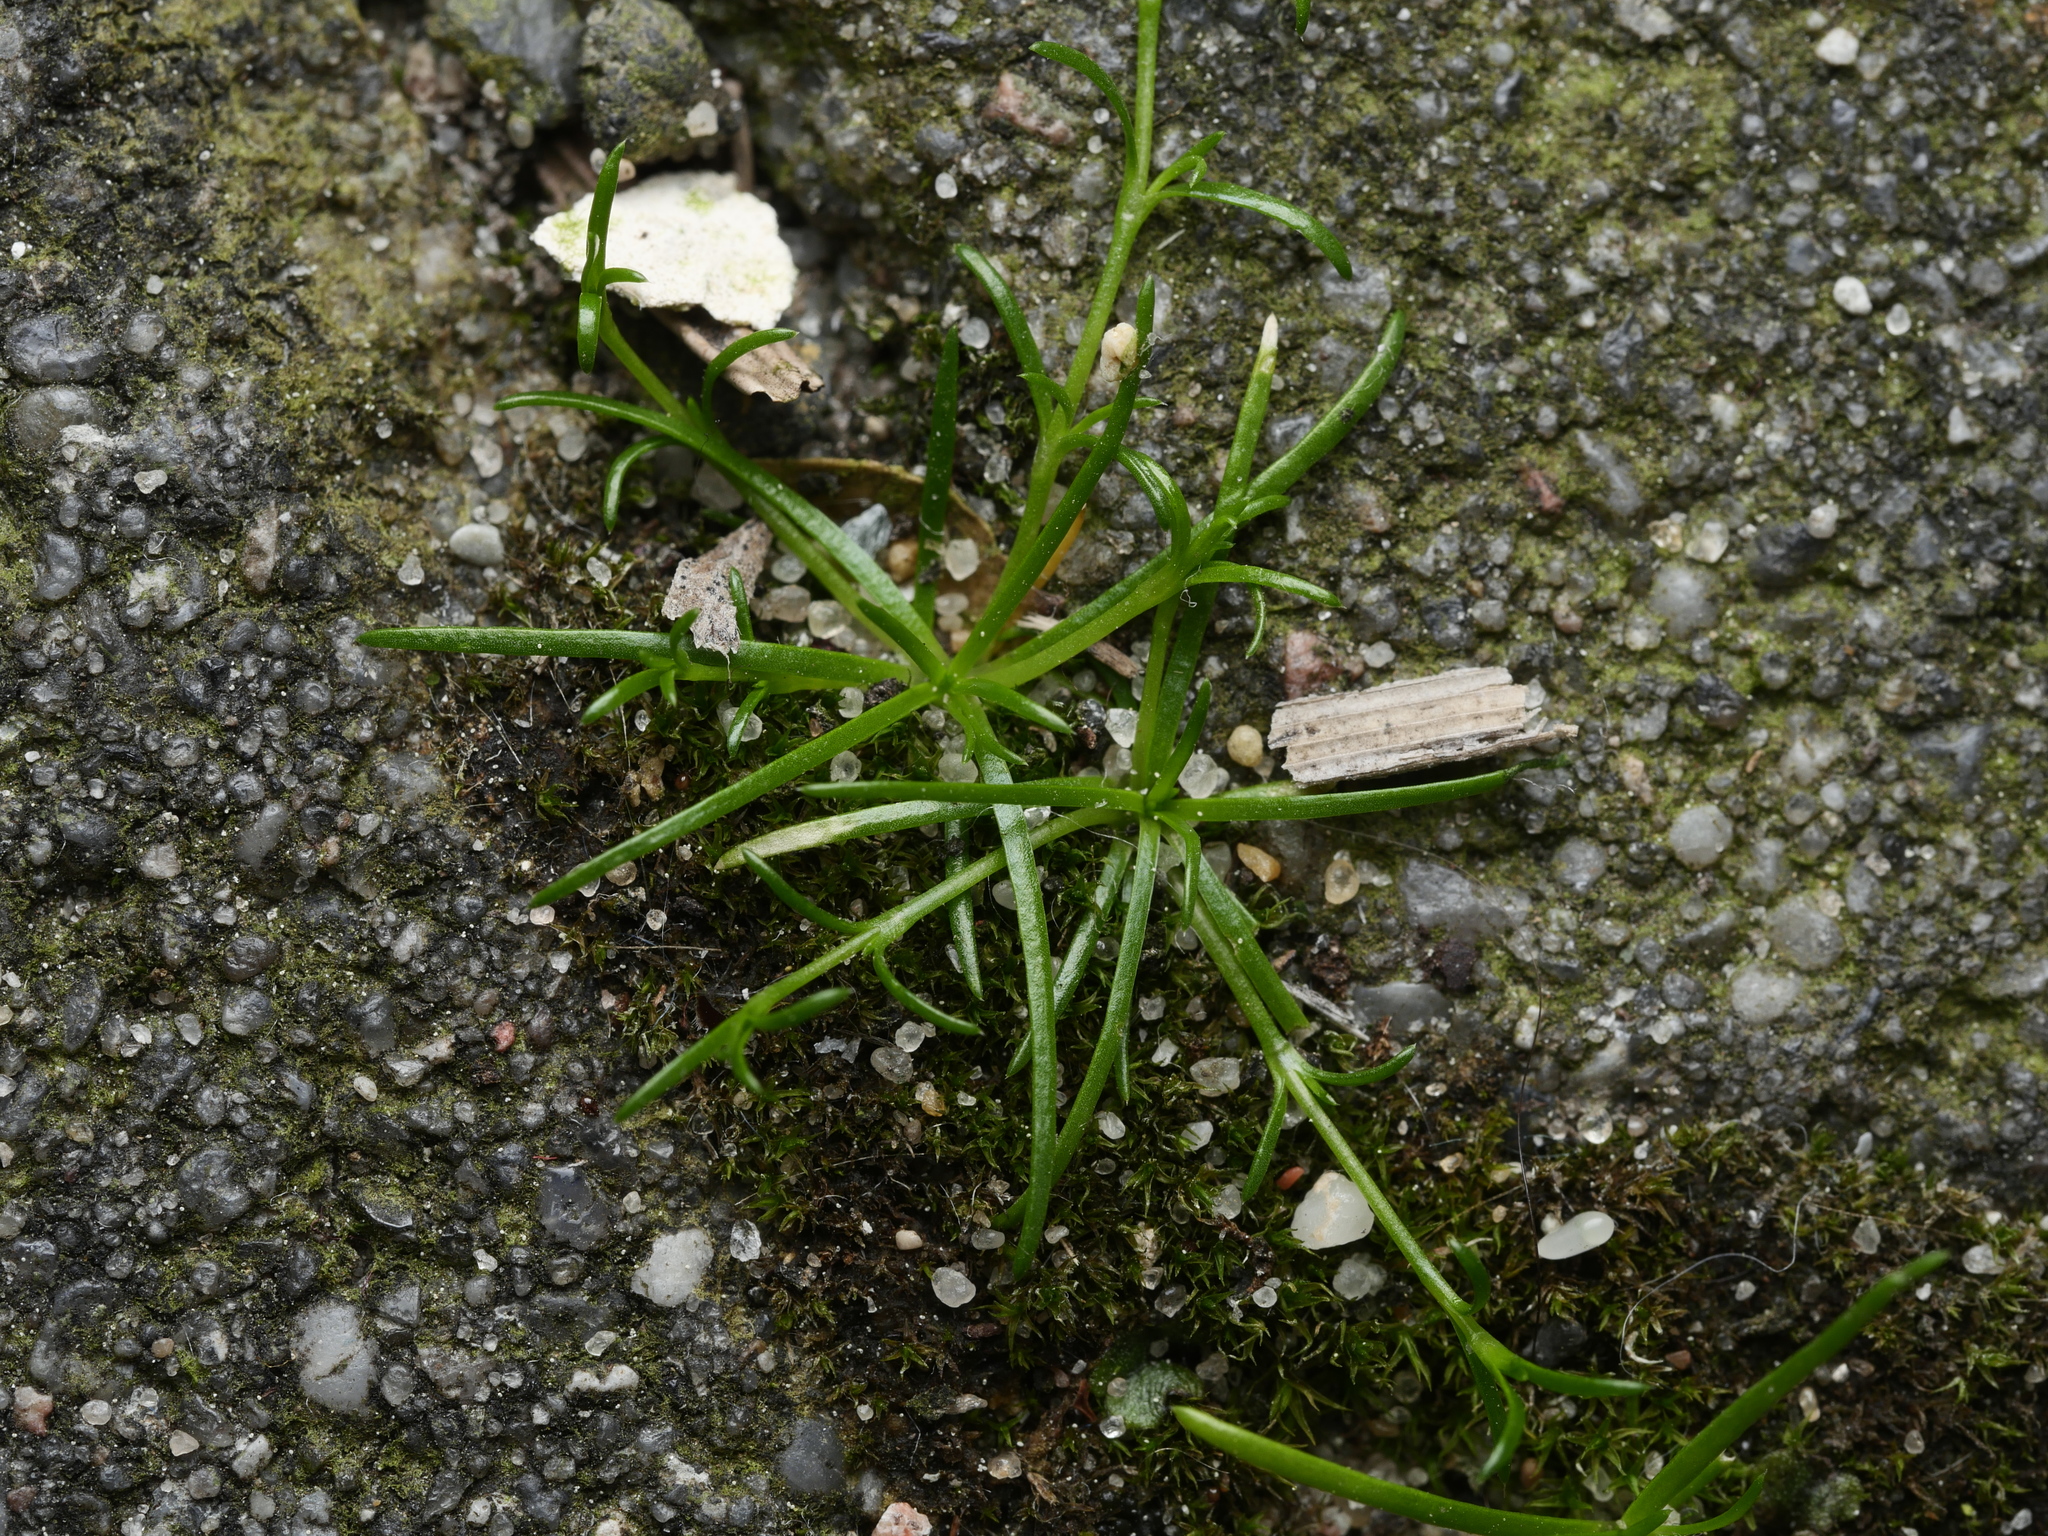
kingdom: Plantae
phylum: Tracheophyta
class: Magnoliopsida
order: Caryophyllales
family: Caryophyllaceae
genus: Sagina
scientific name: Sagina procumbens
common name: Procumbent pearlwort
